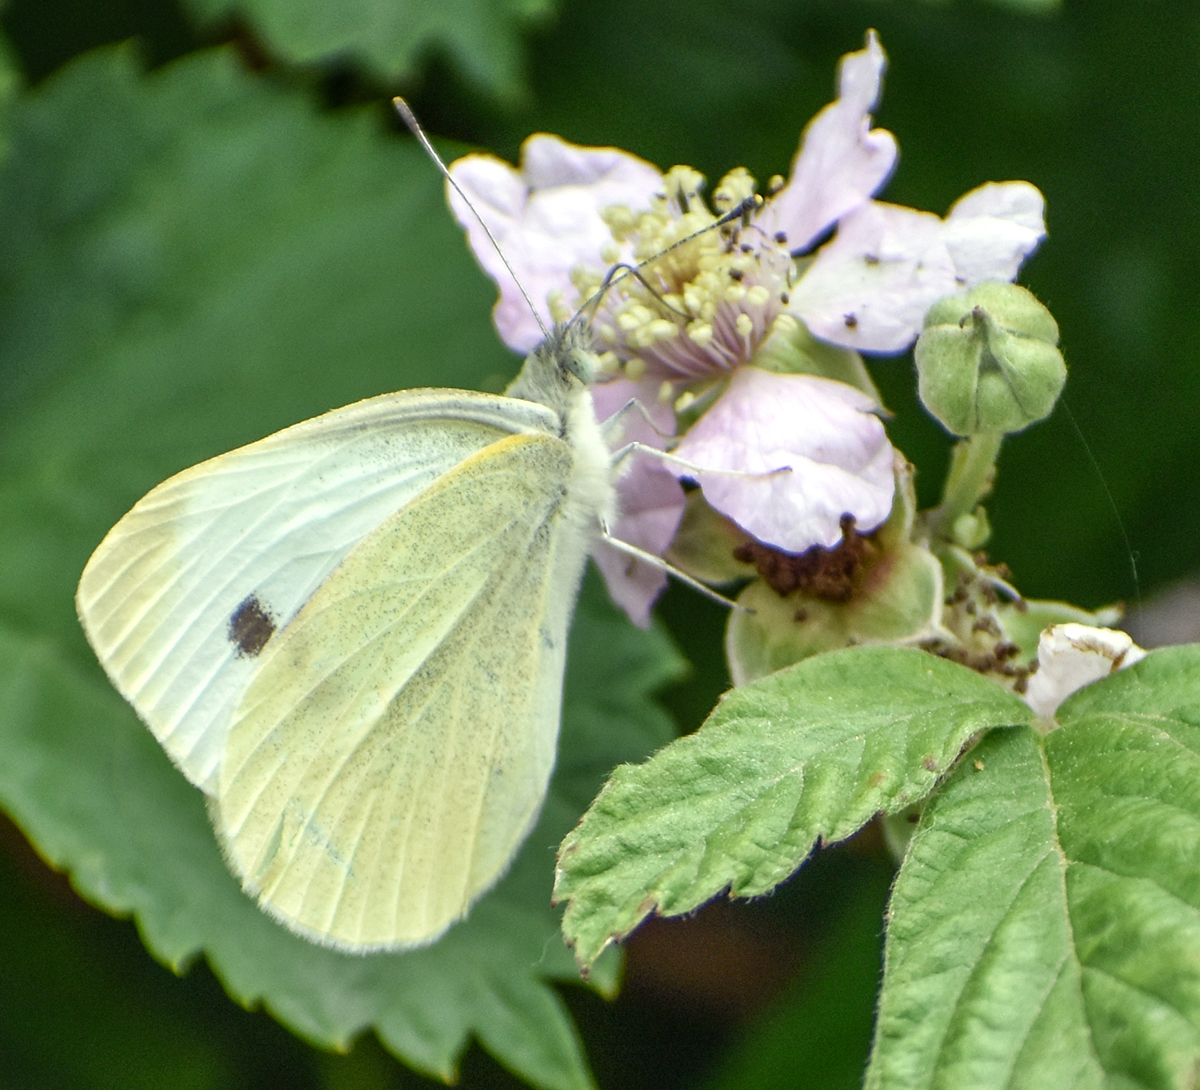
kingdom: Animalia
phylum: Arthropoda
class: Insecta
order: Lepidoptera
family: Pieridae
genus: Pieris
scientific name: Pieris rapae
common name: Small white
